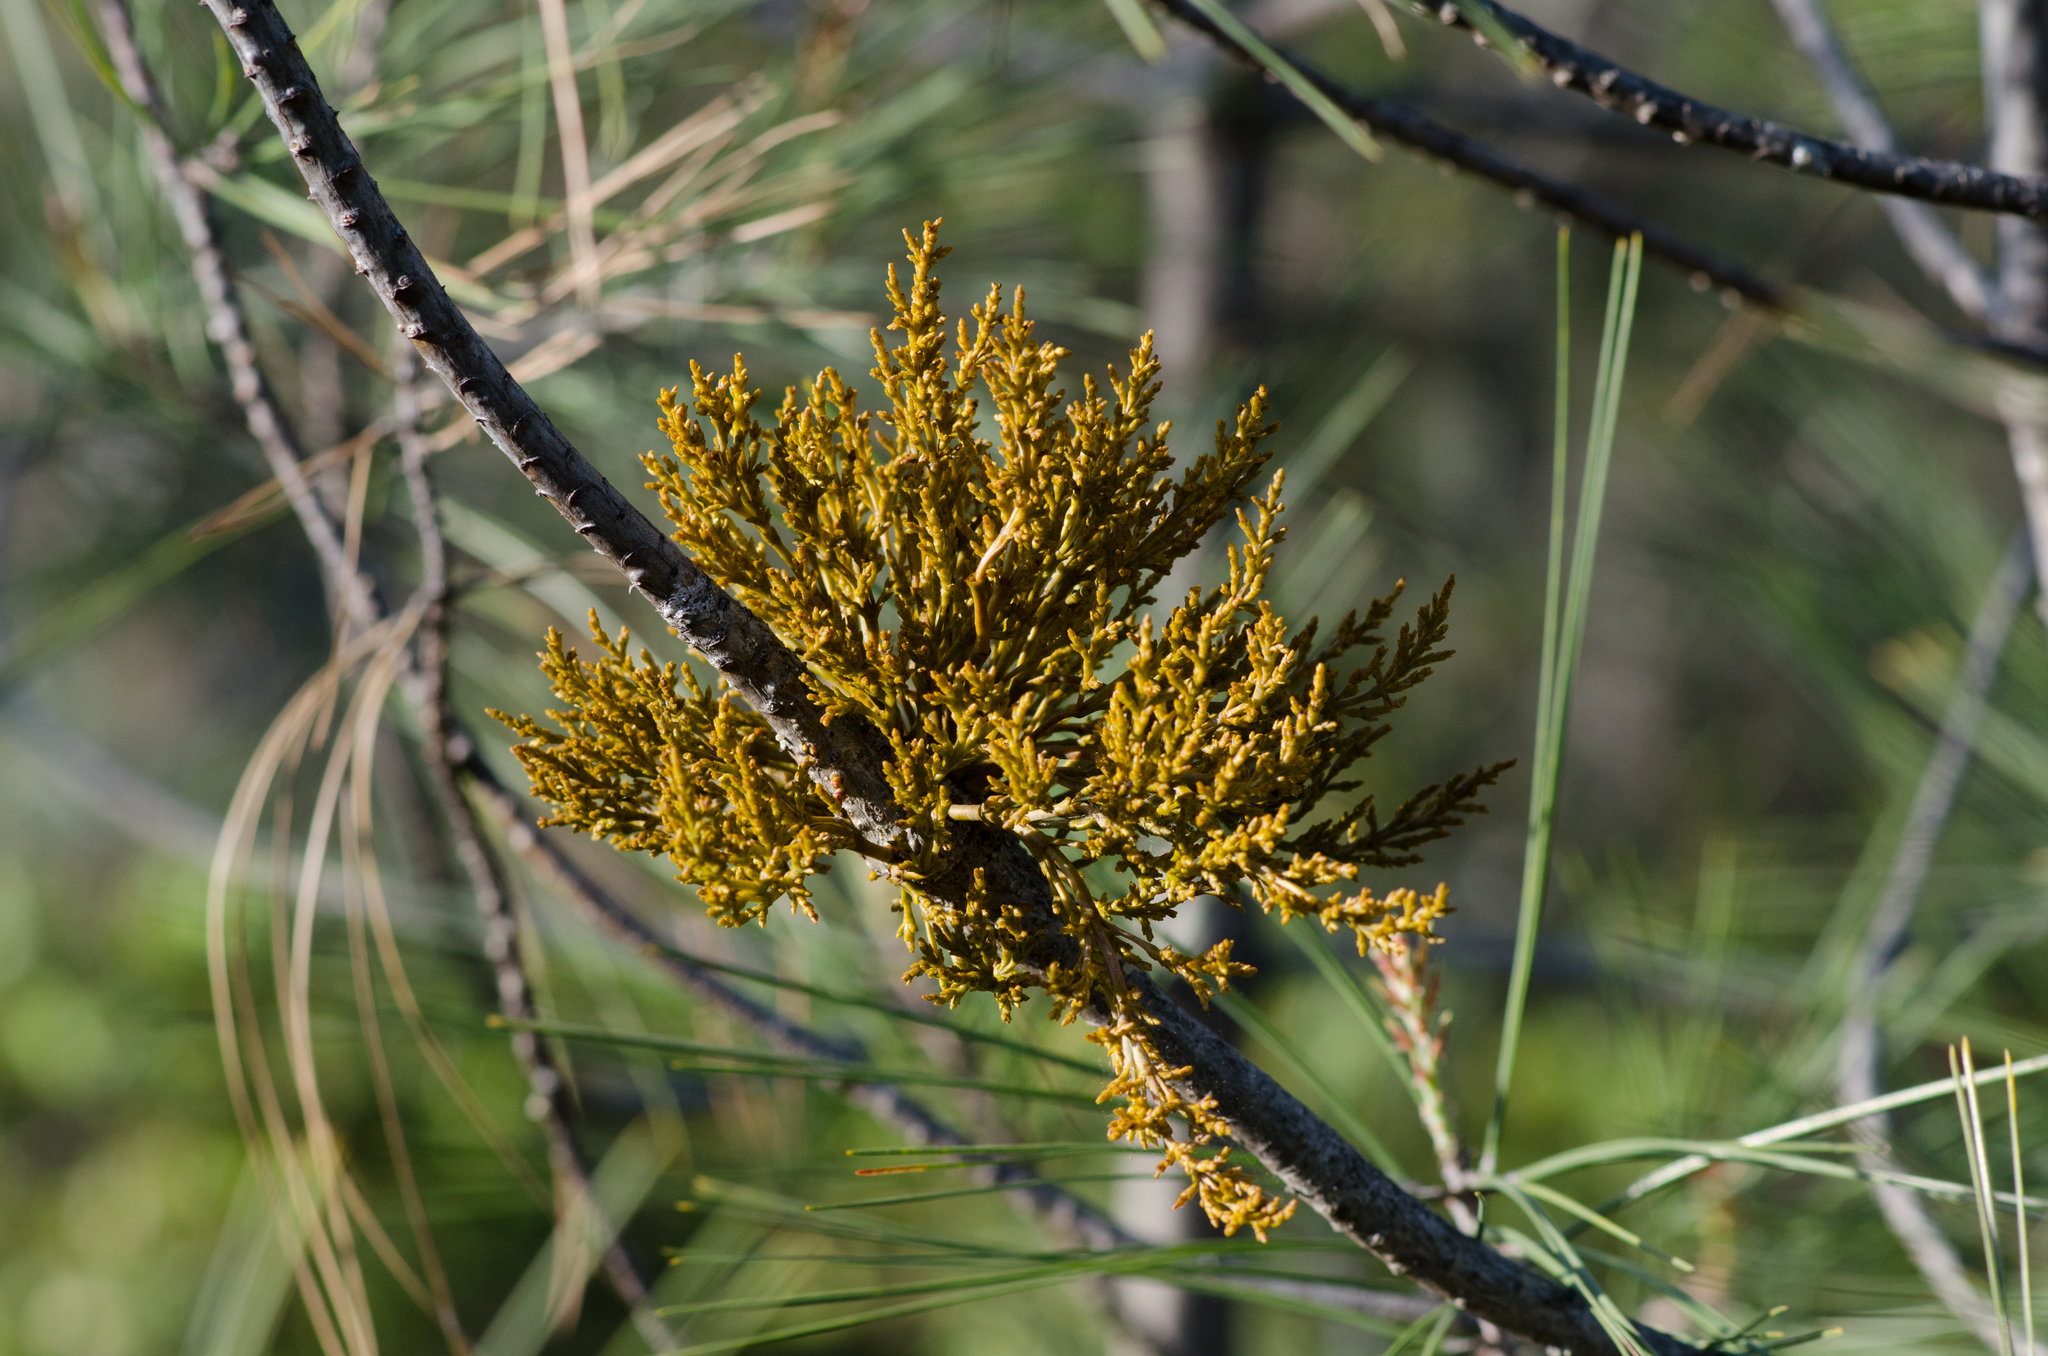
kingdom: Plantae
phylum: Tracheophyta
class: Magnoliopsida
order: Santalales
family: Viscaceae
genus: Arceuthobium
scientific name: Arceuthobium campylopodum
